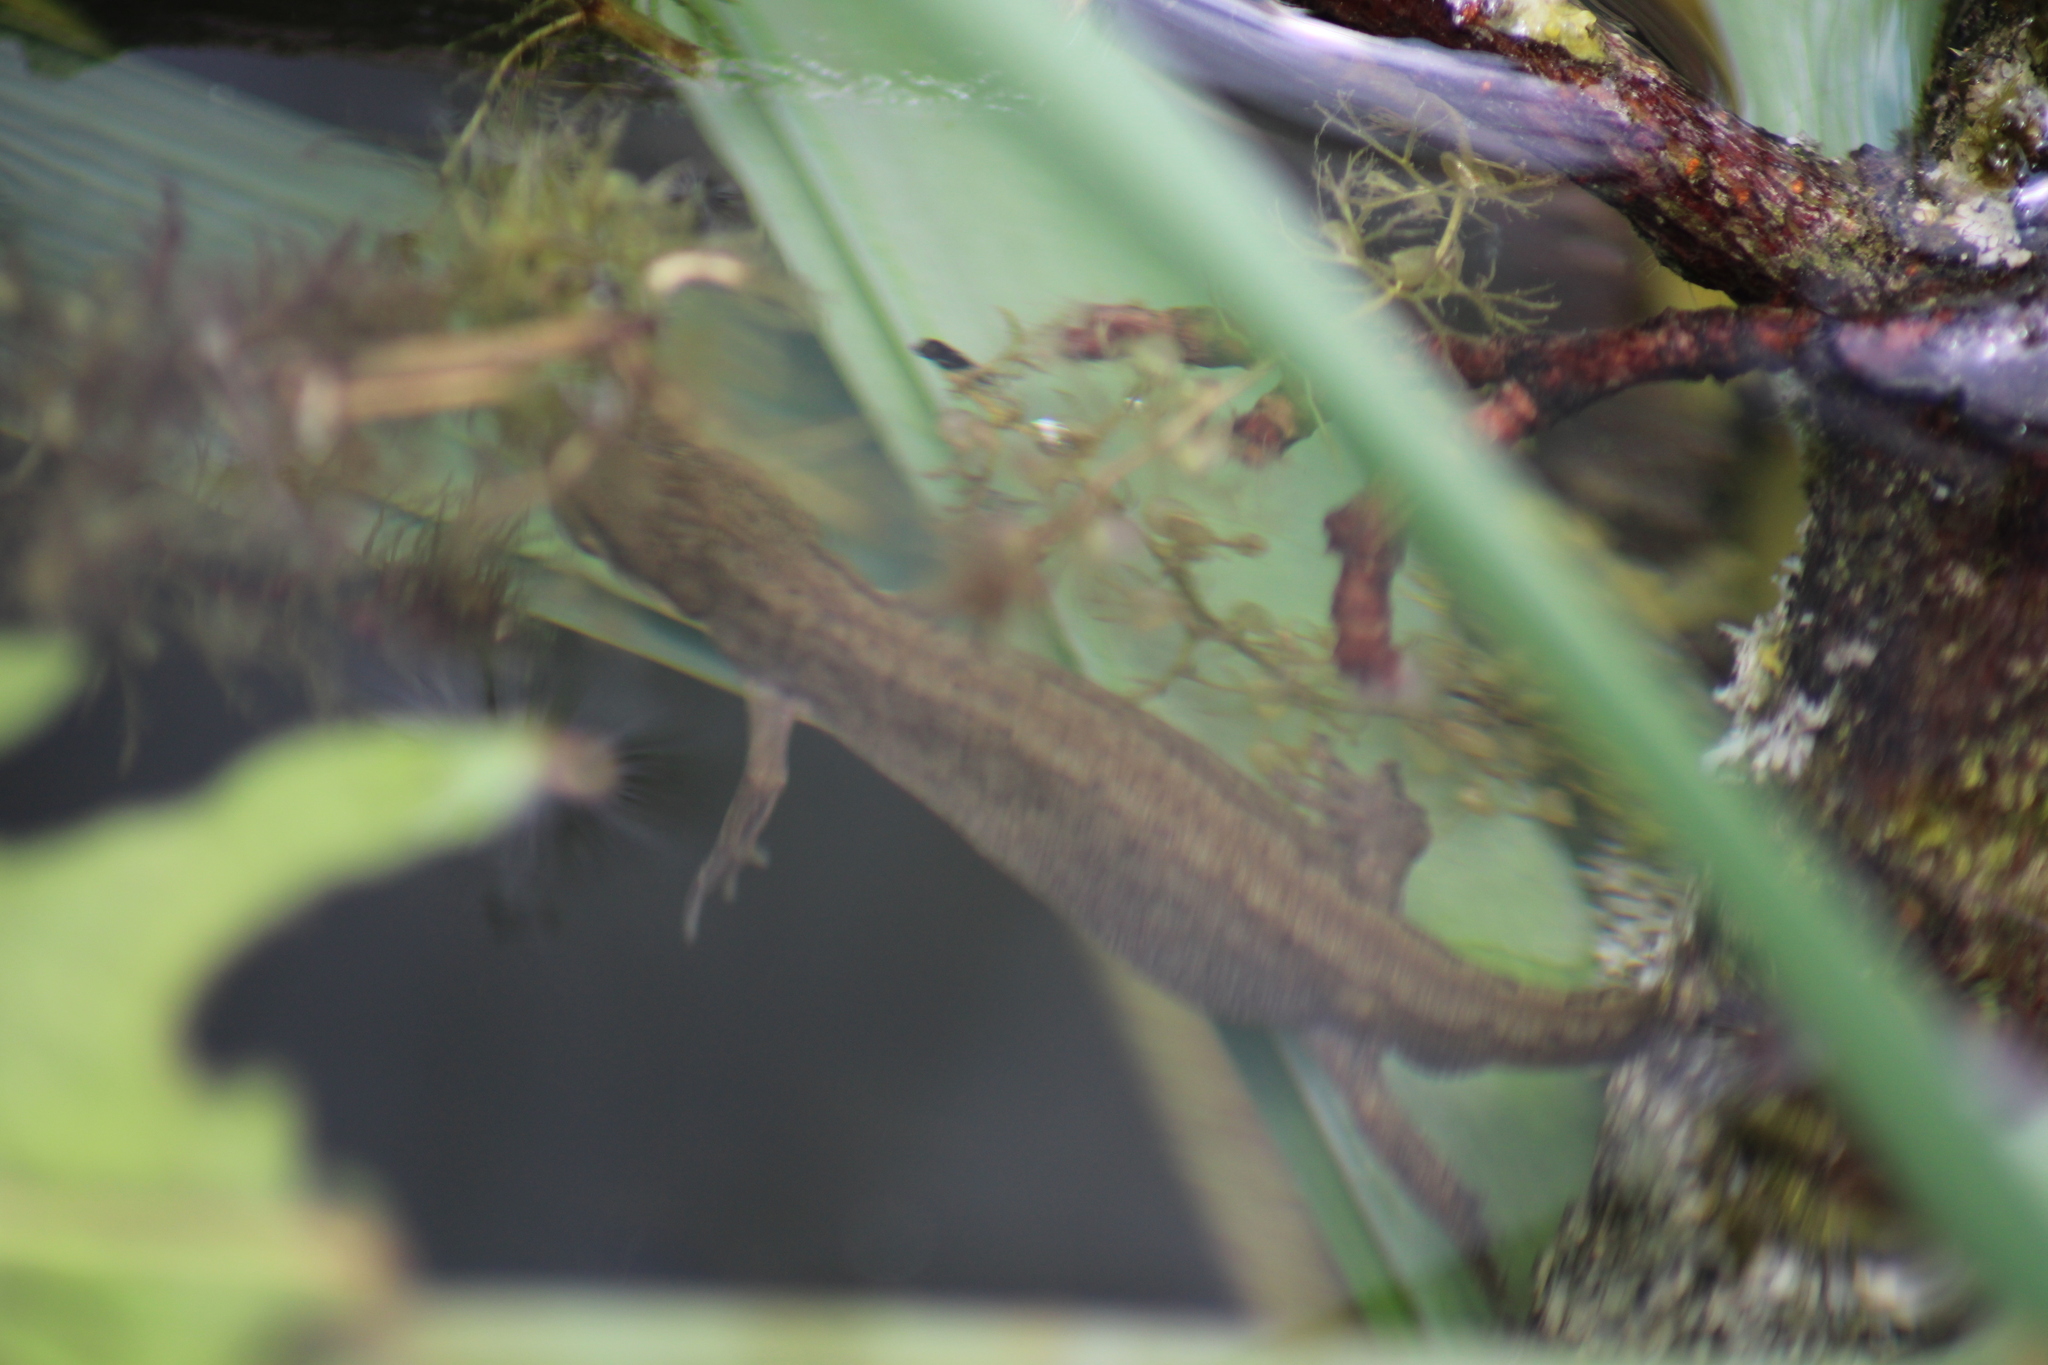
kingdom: Animalia
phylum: Chordata
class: Amphibia
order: Caudata
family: Salamandridae
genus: Lissotriton
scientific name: Lissotriton vulgaris
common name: Smooth newt
